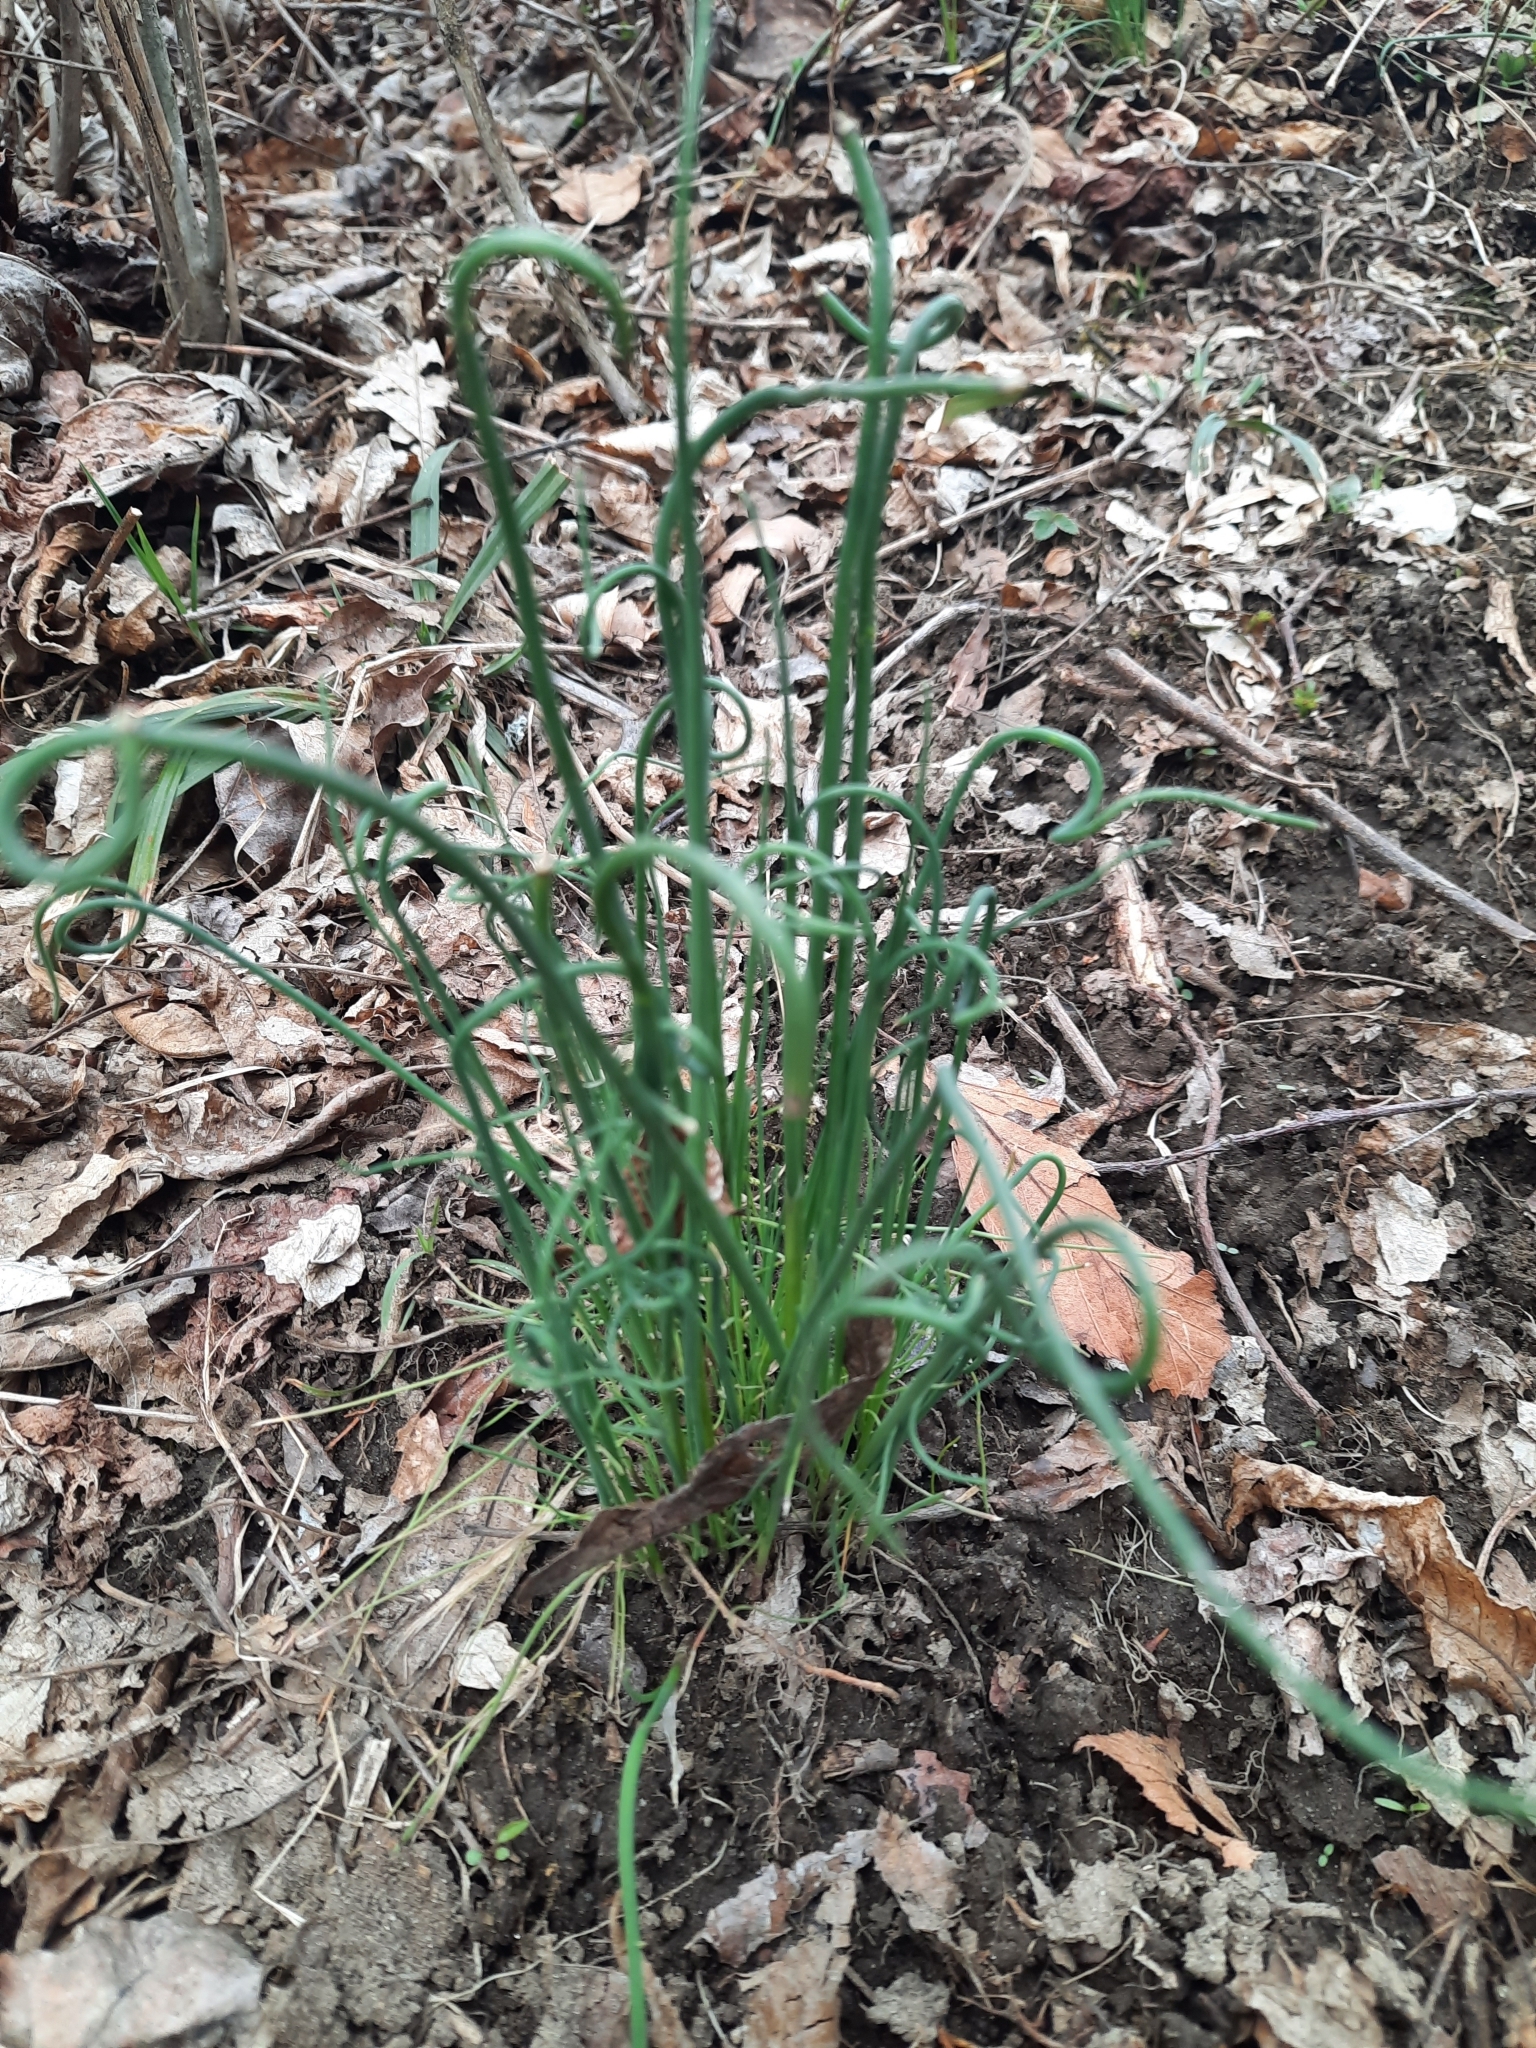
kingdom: Plantae
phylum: Tracheophyta
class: Liliopsida
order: Asparagales
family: Amaryllidaceae
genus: Allium
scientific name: Allium vineale
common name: Crow garlic
